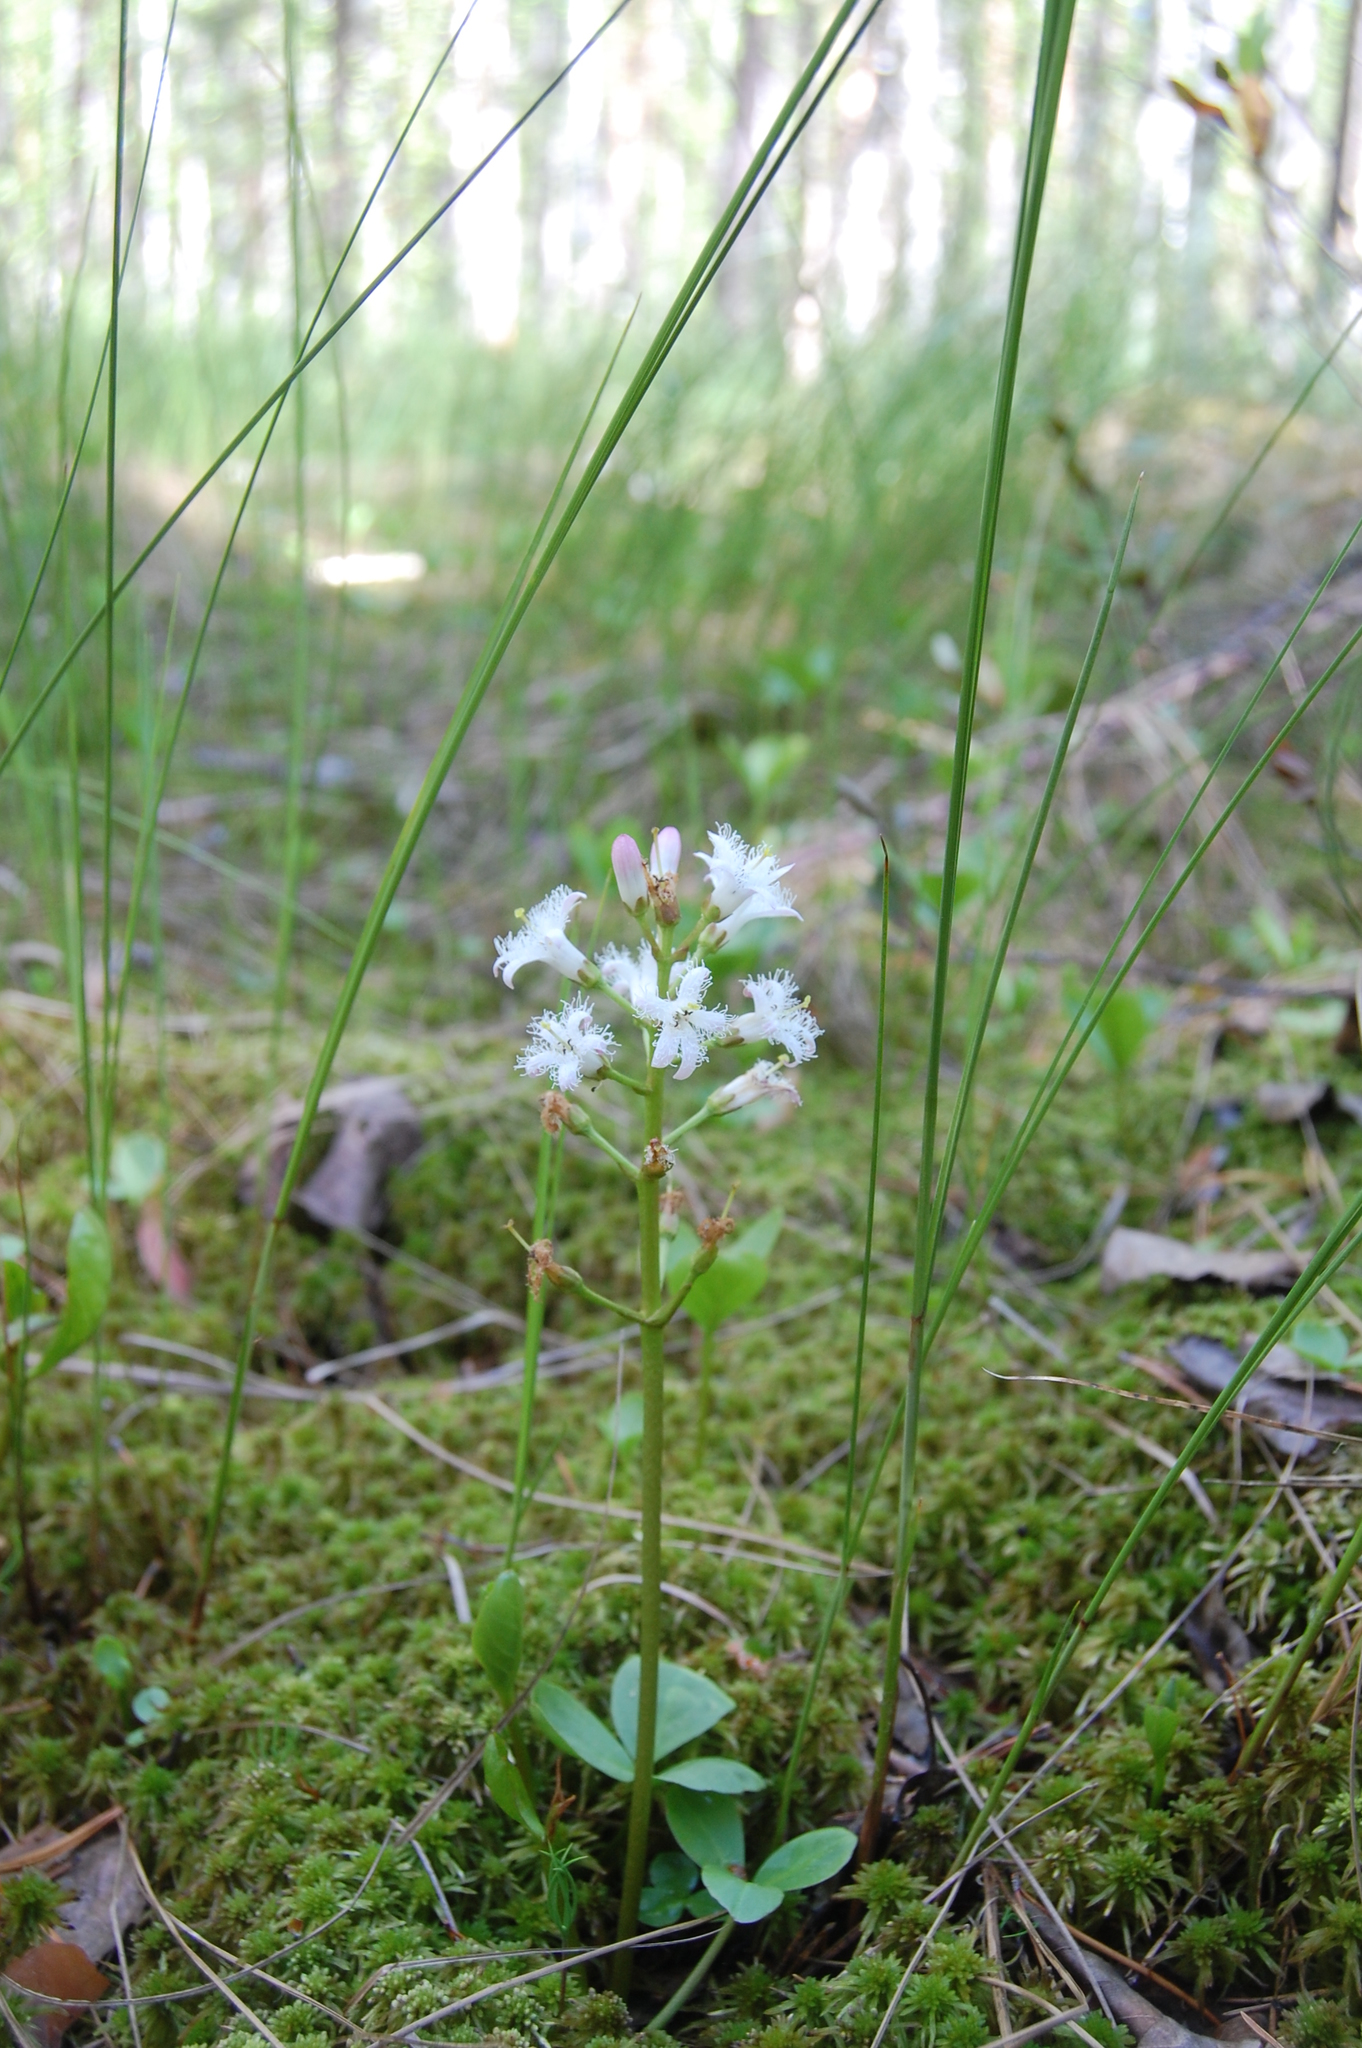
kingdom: Plantae
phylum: Tracheophyta
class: Magnoliopsida
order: Asterales
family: Menyanthaceae
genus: Menyanthes
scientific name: Menyanthes trifoliata
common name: Bogbean
